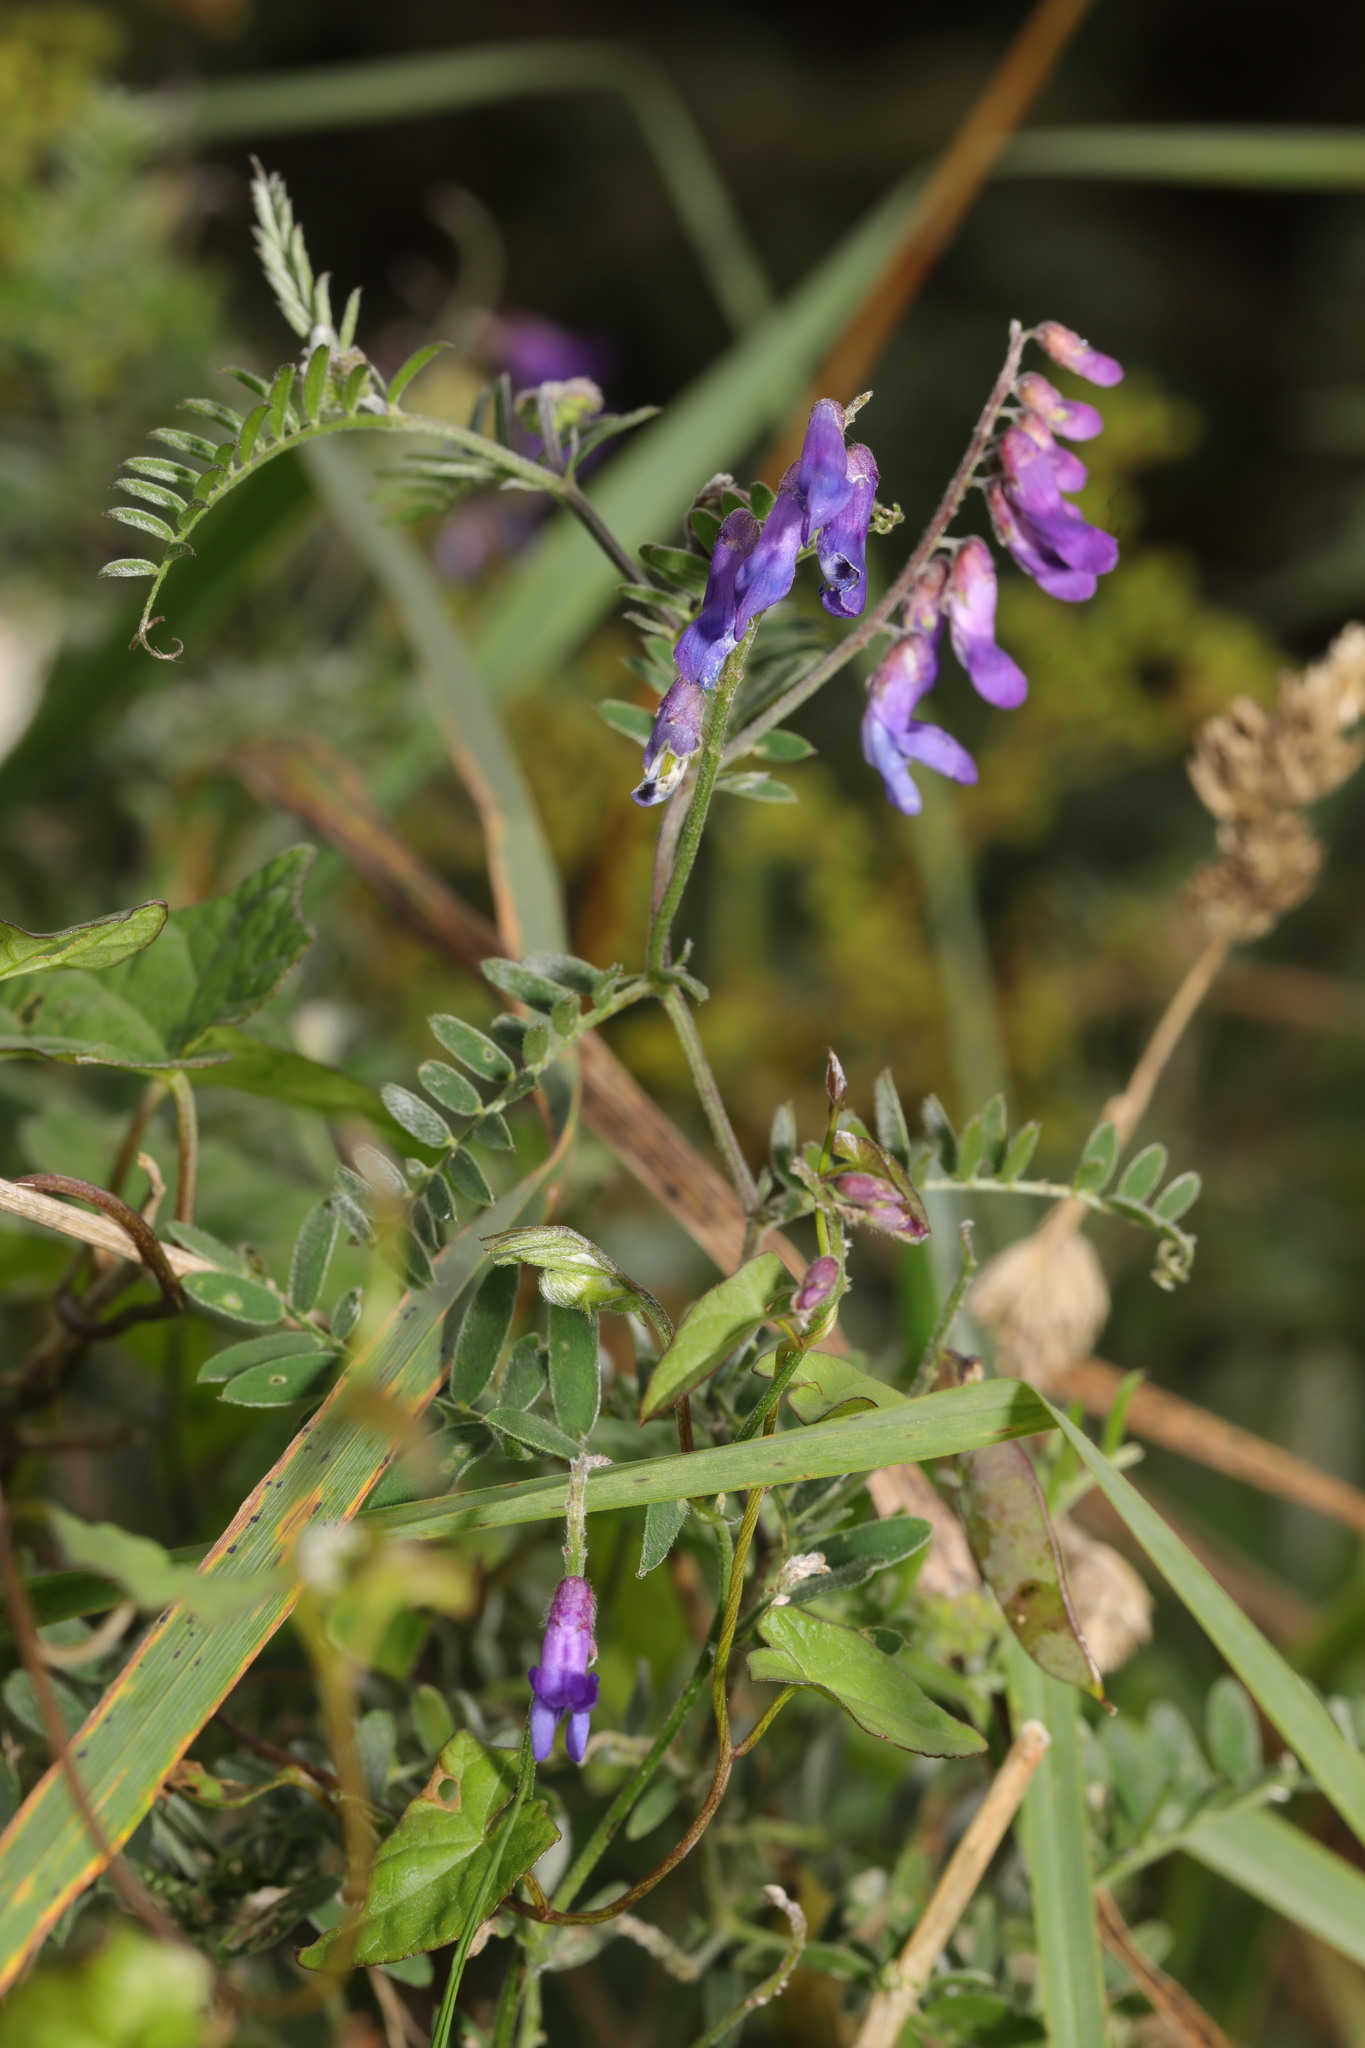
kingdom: Plantae
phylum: Tracheophyta
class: Magnoliopsida
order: Fabales
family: Fabaceae
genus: Vicia
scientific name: Vicia cracca
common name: Bird vetch
